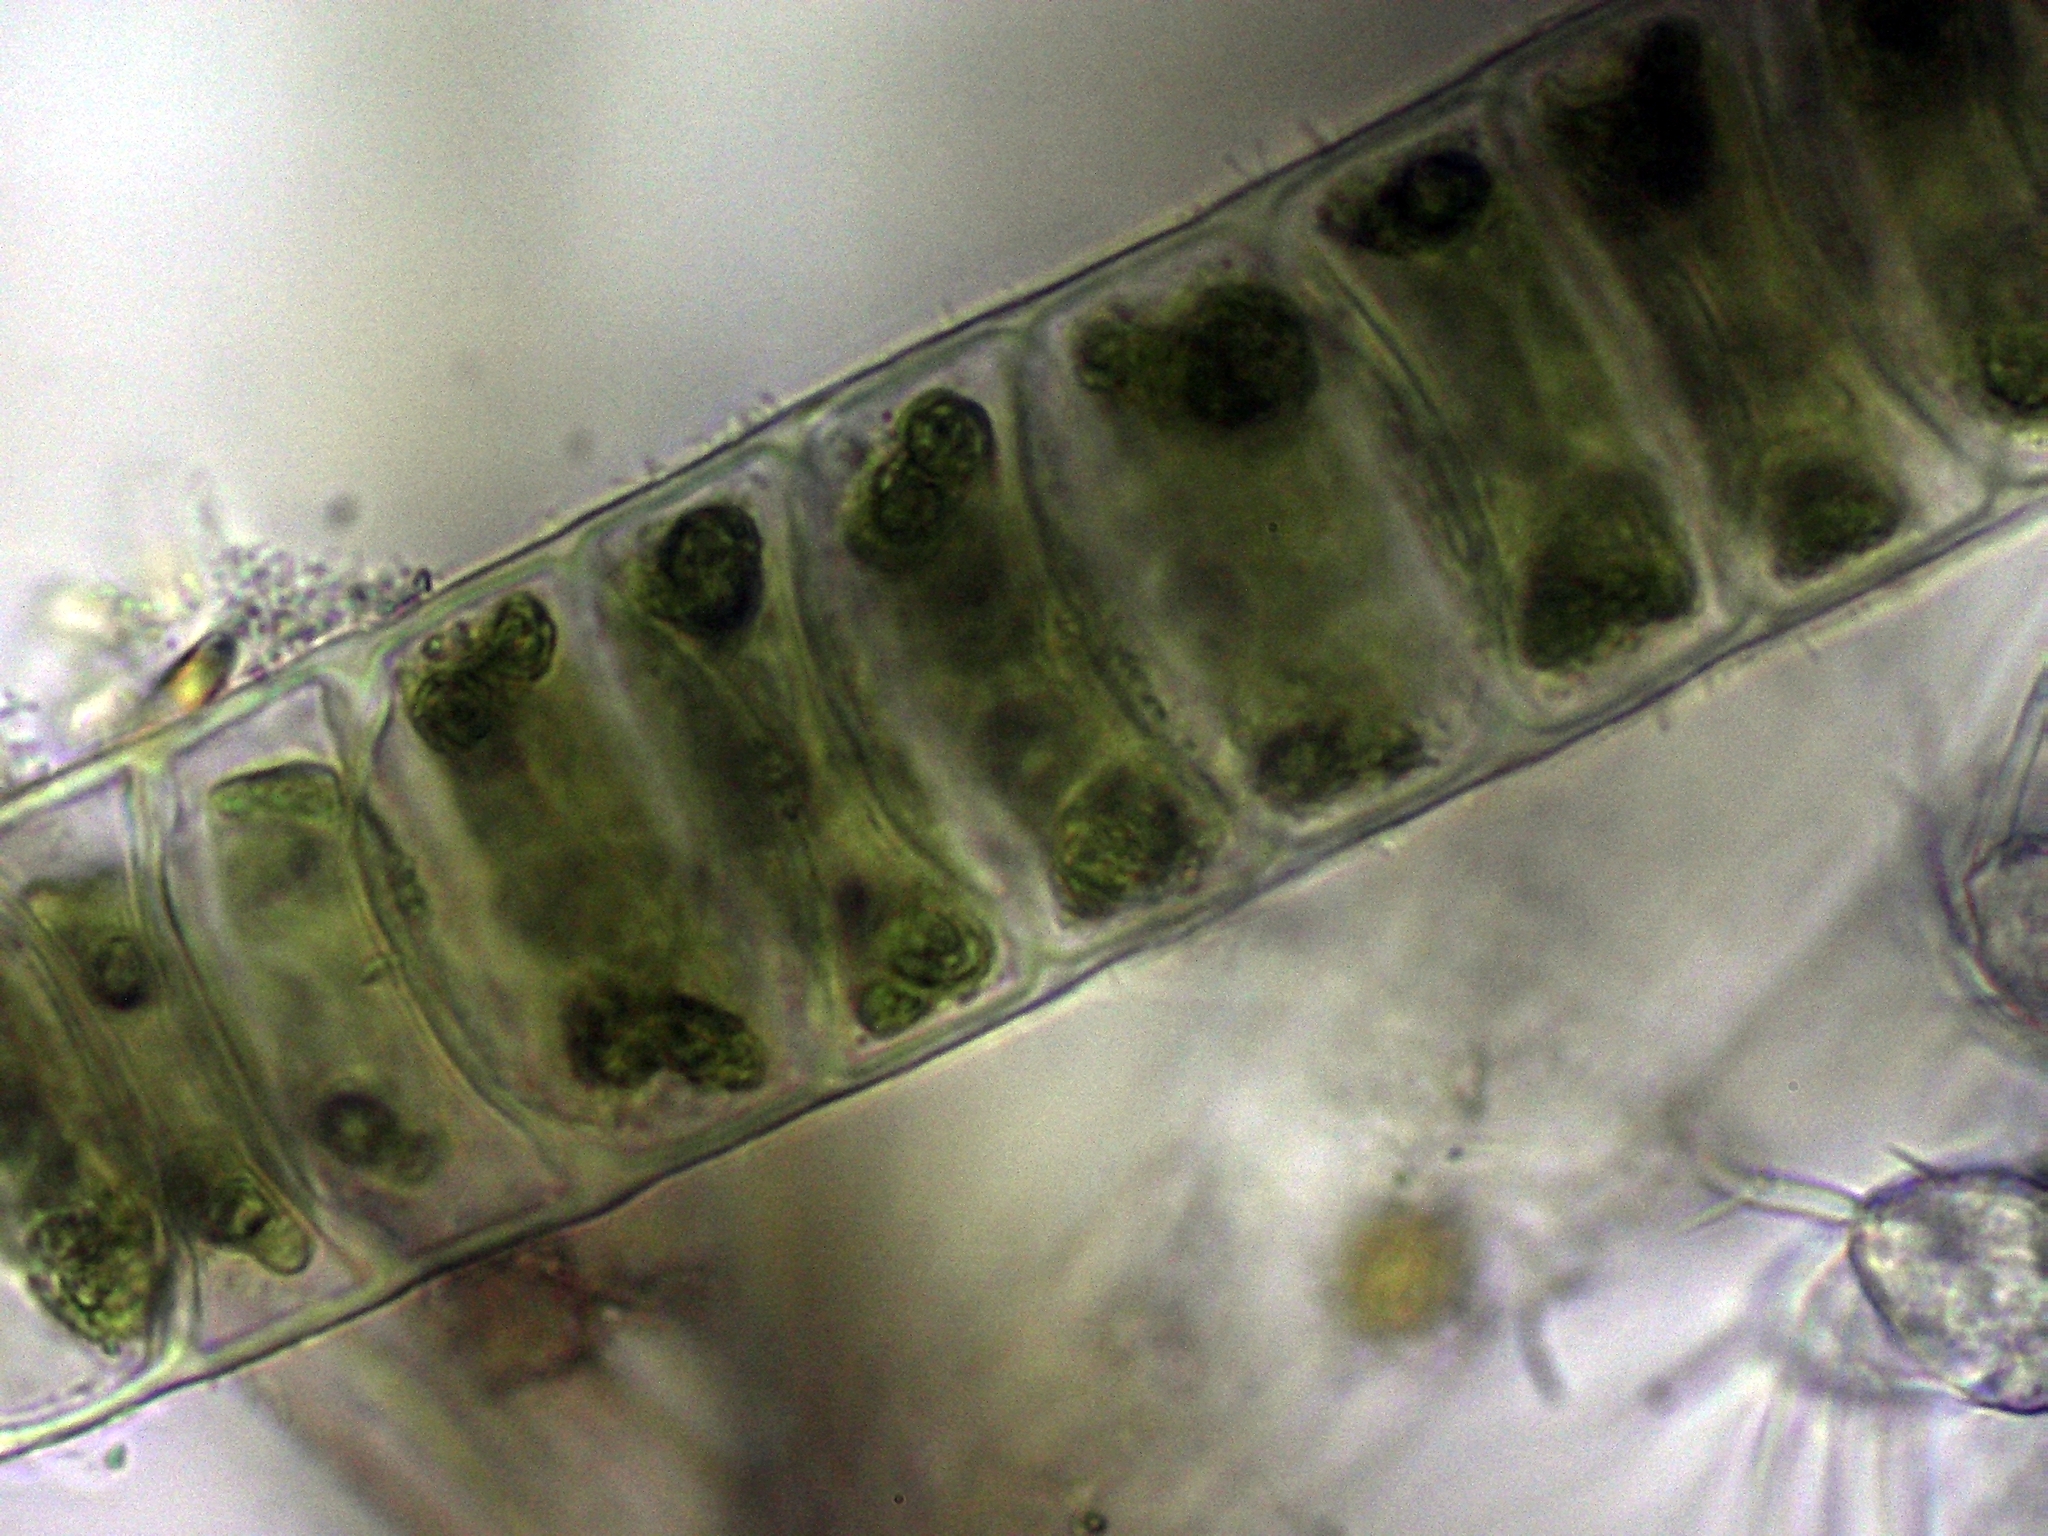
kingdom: Plantae
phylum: Chlorophyta
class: Ulvophyceae
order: Ulotrichales
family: Ulotrichaceae
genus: Ulothrix
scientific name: Ulothrix zonata
